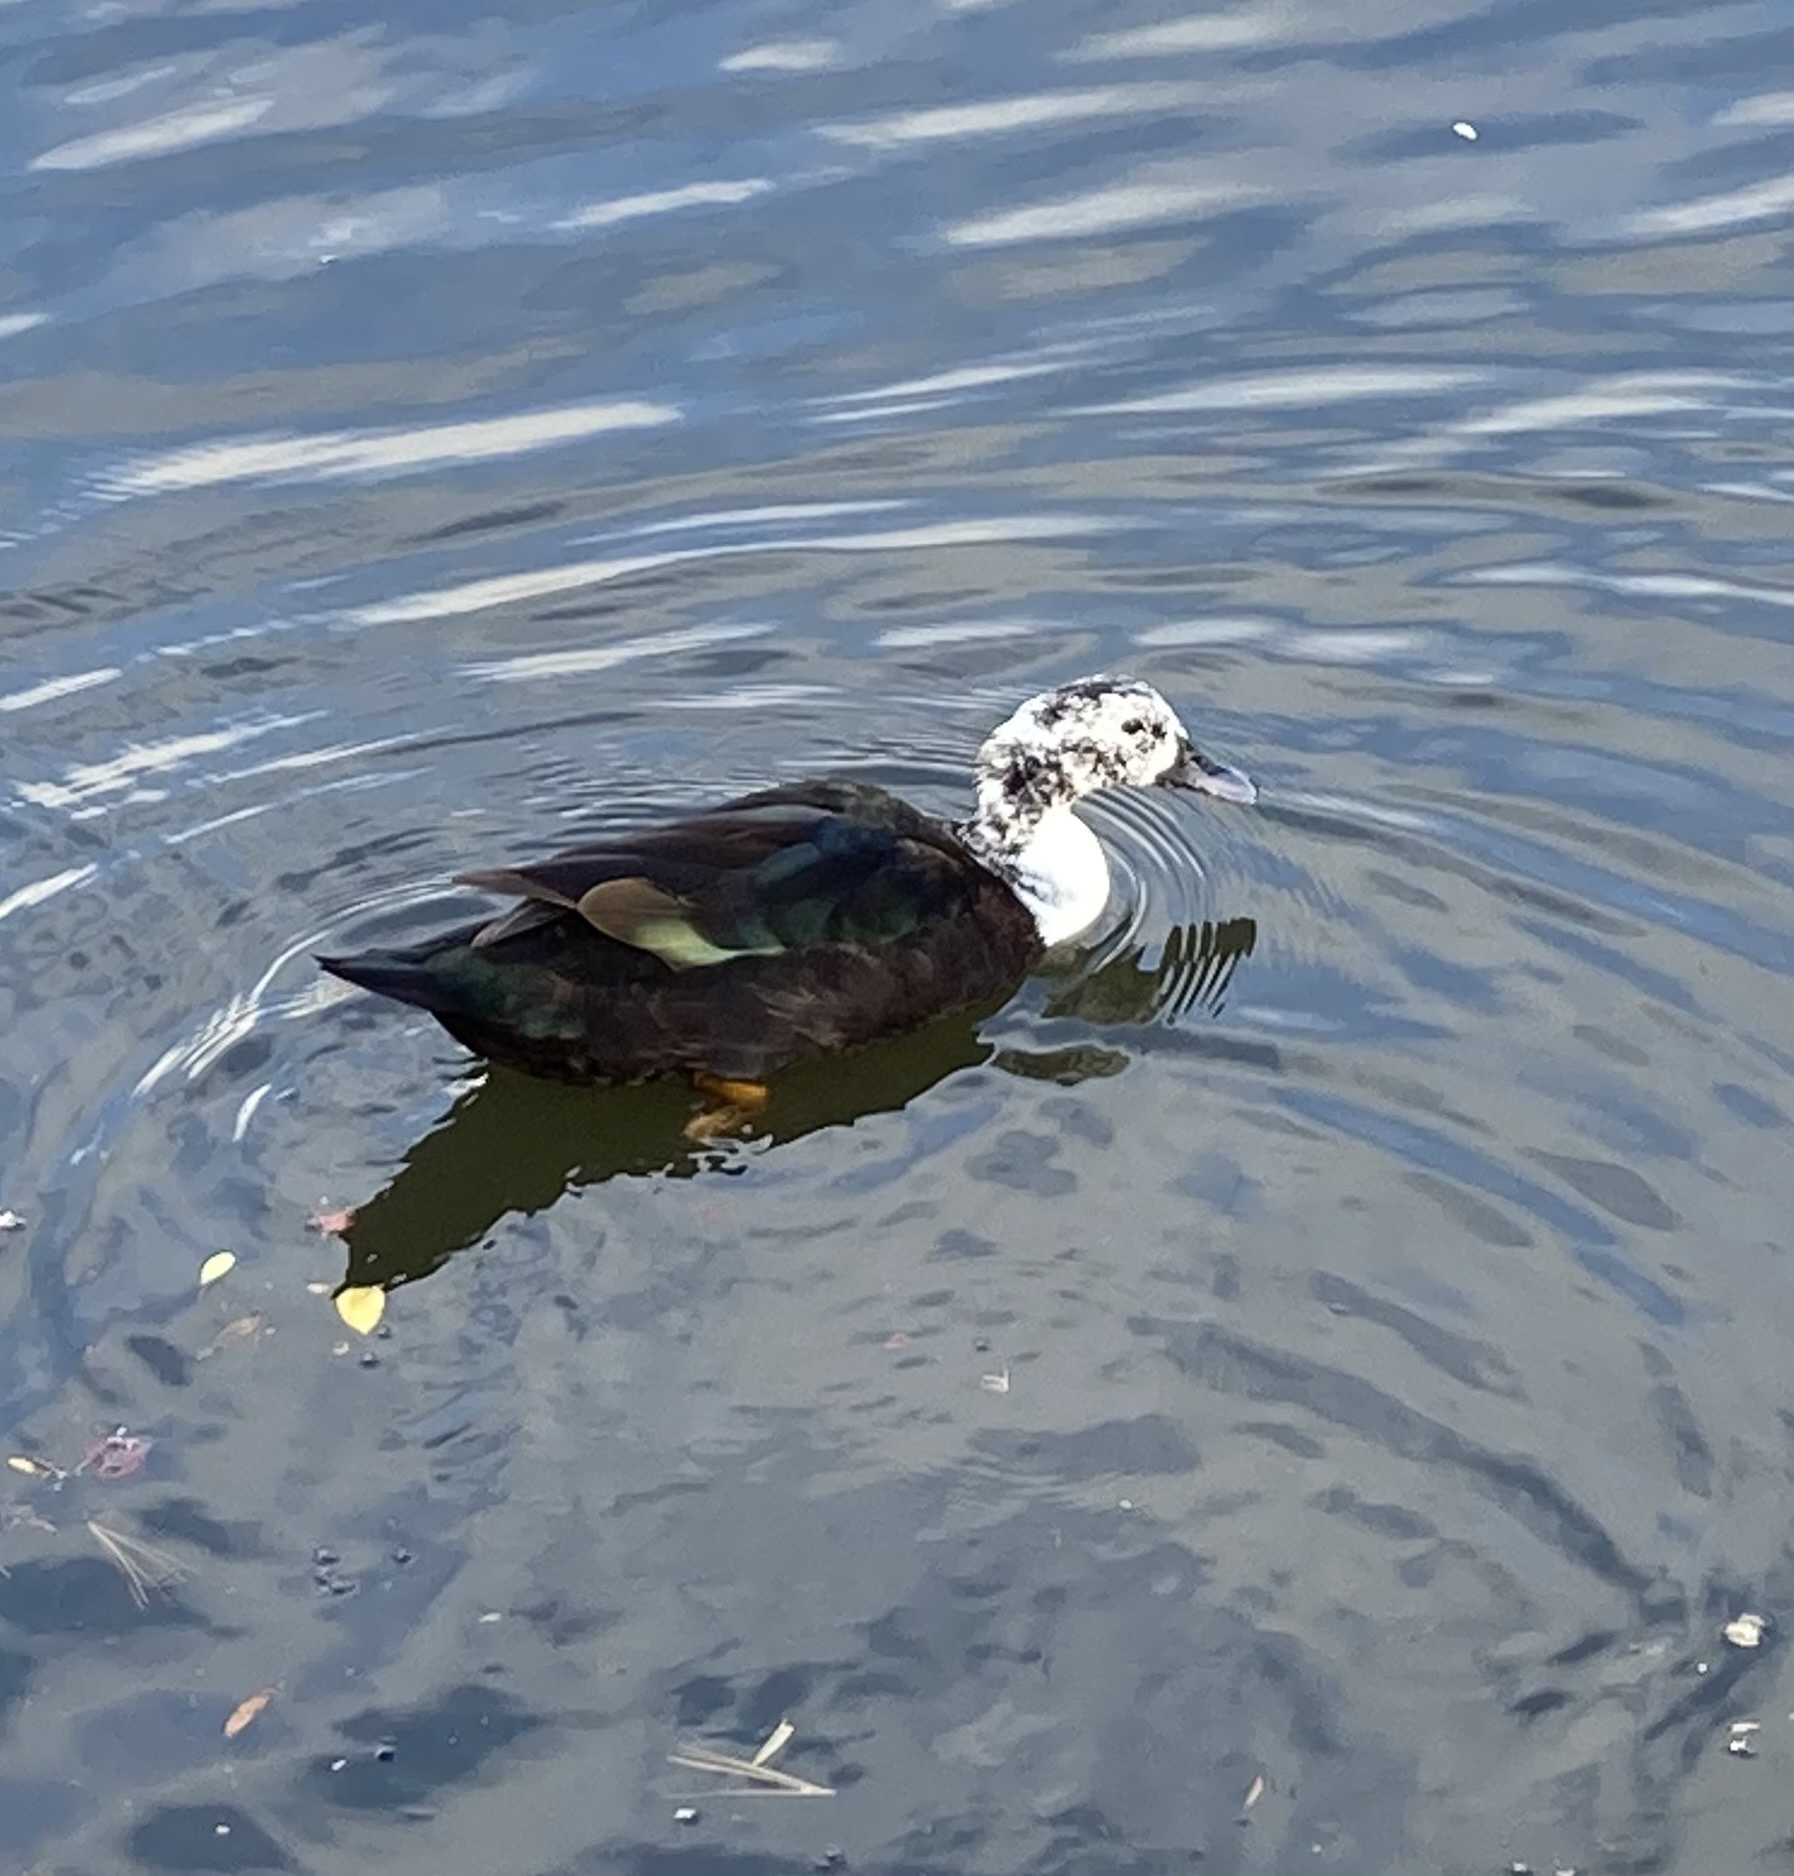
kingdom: Animalia
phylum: Chordata
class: Aves
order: Anseriformes
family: Anatidae
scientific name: Anatidae
